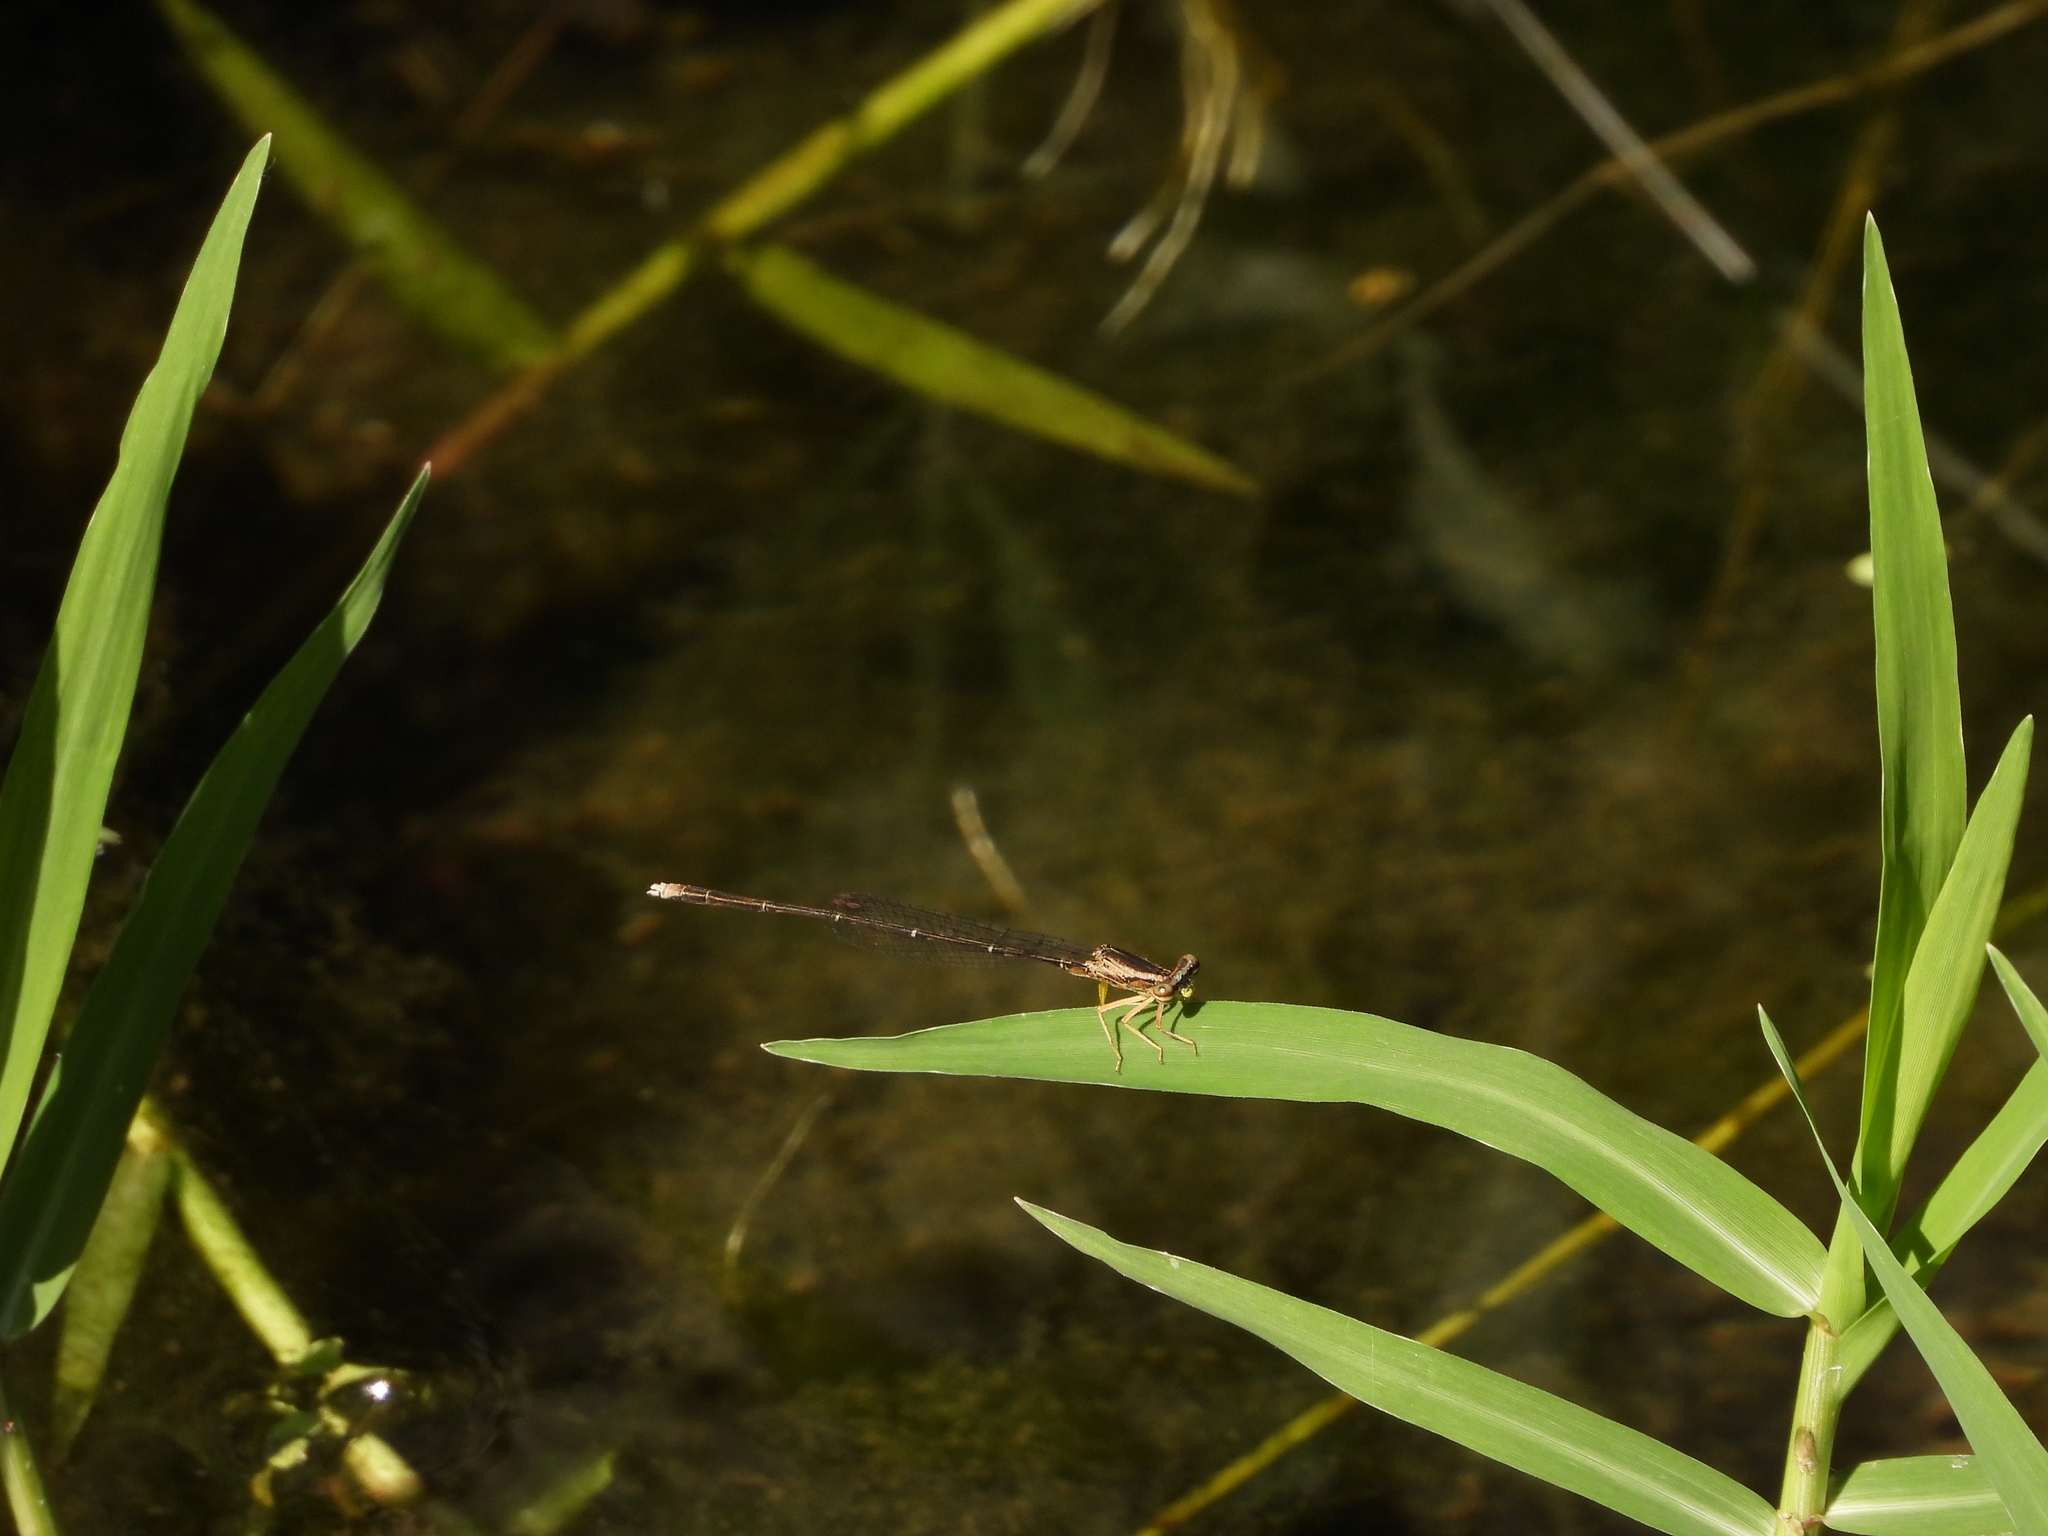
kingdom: Animalia
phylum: Arthropoda
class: Insecta
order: Odonata
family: Platycnemididae
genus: Copera
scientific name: Copera marginipes
